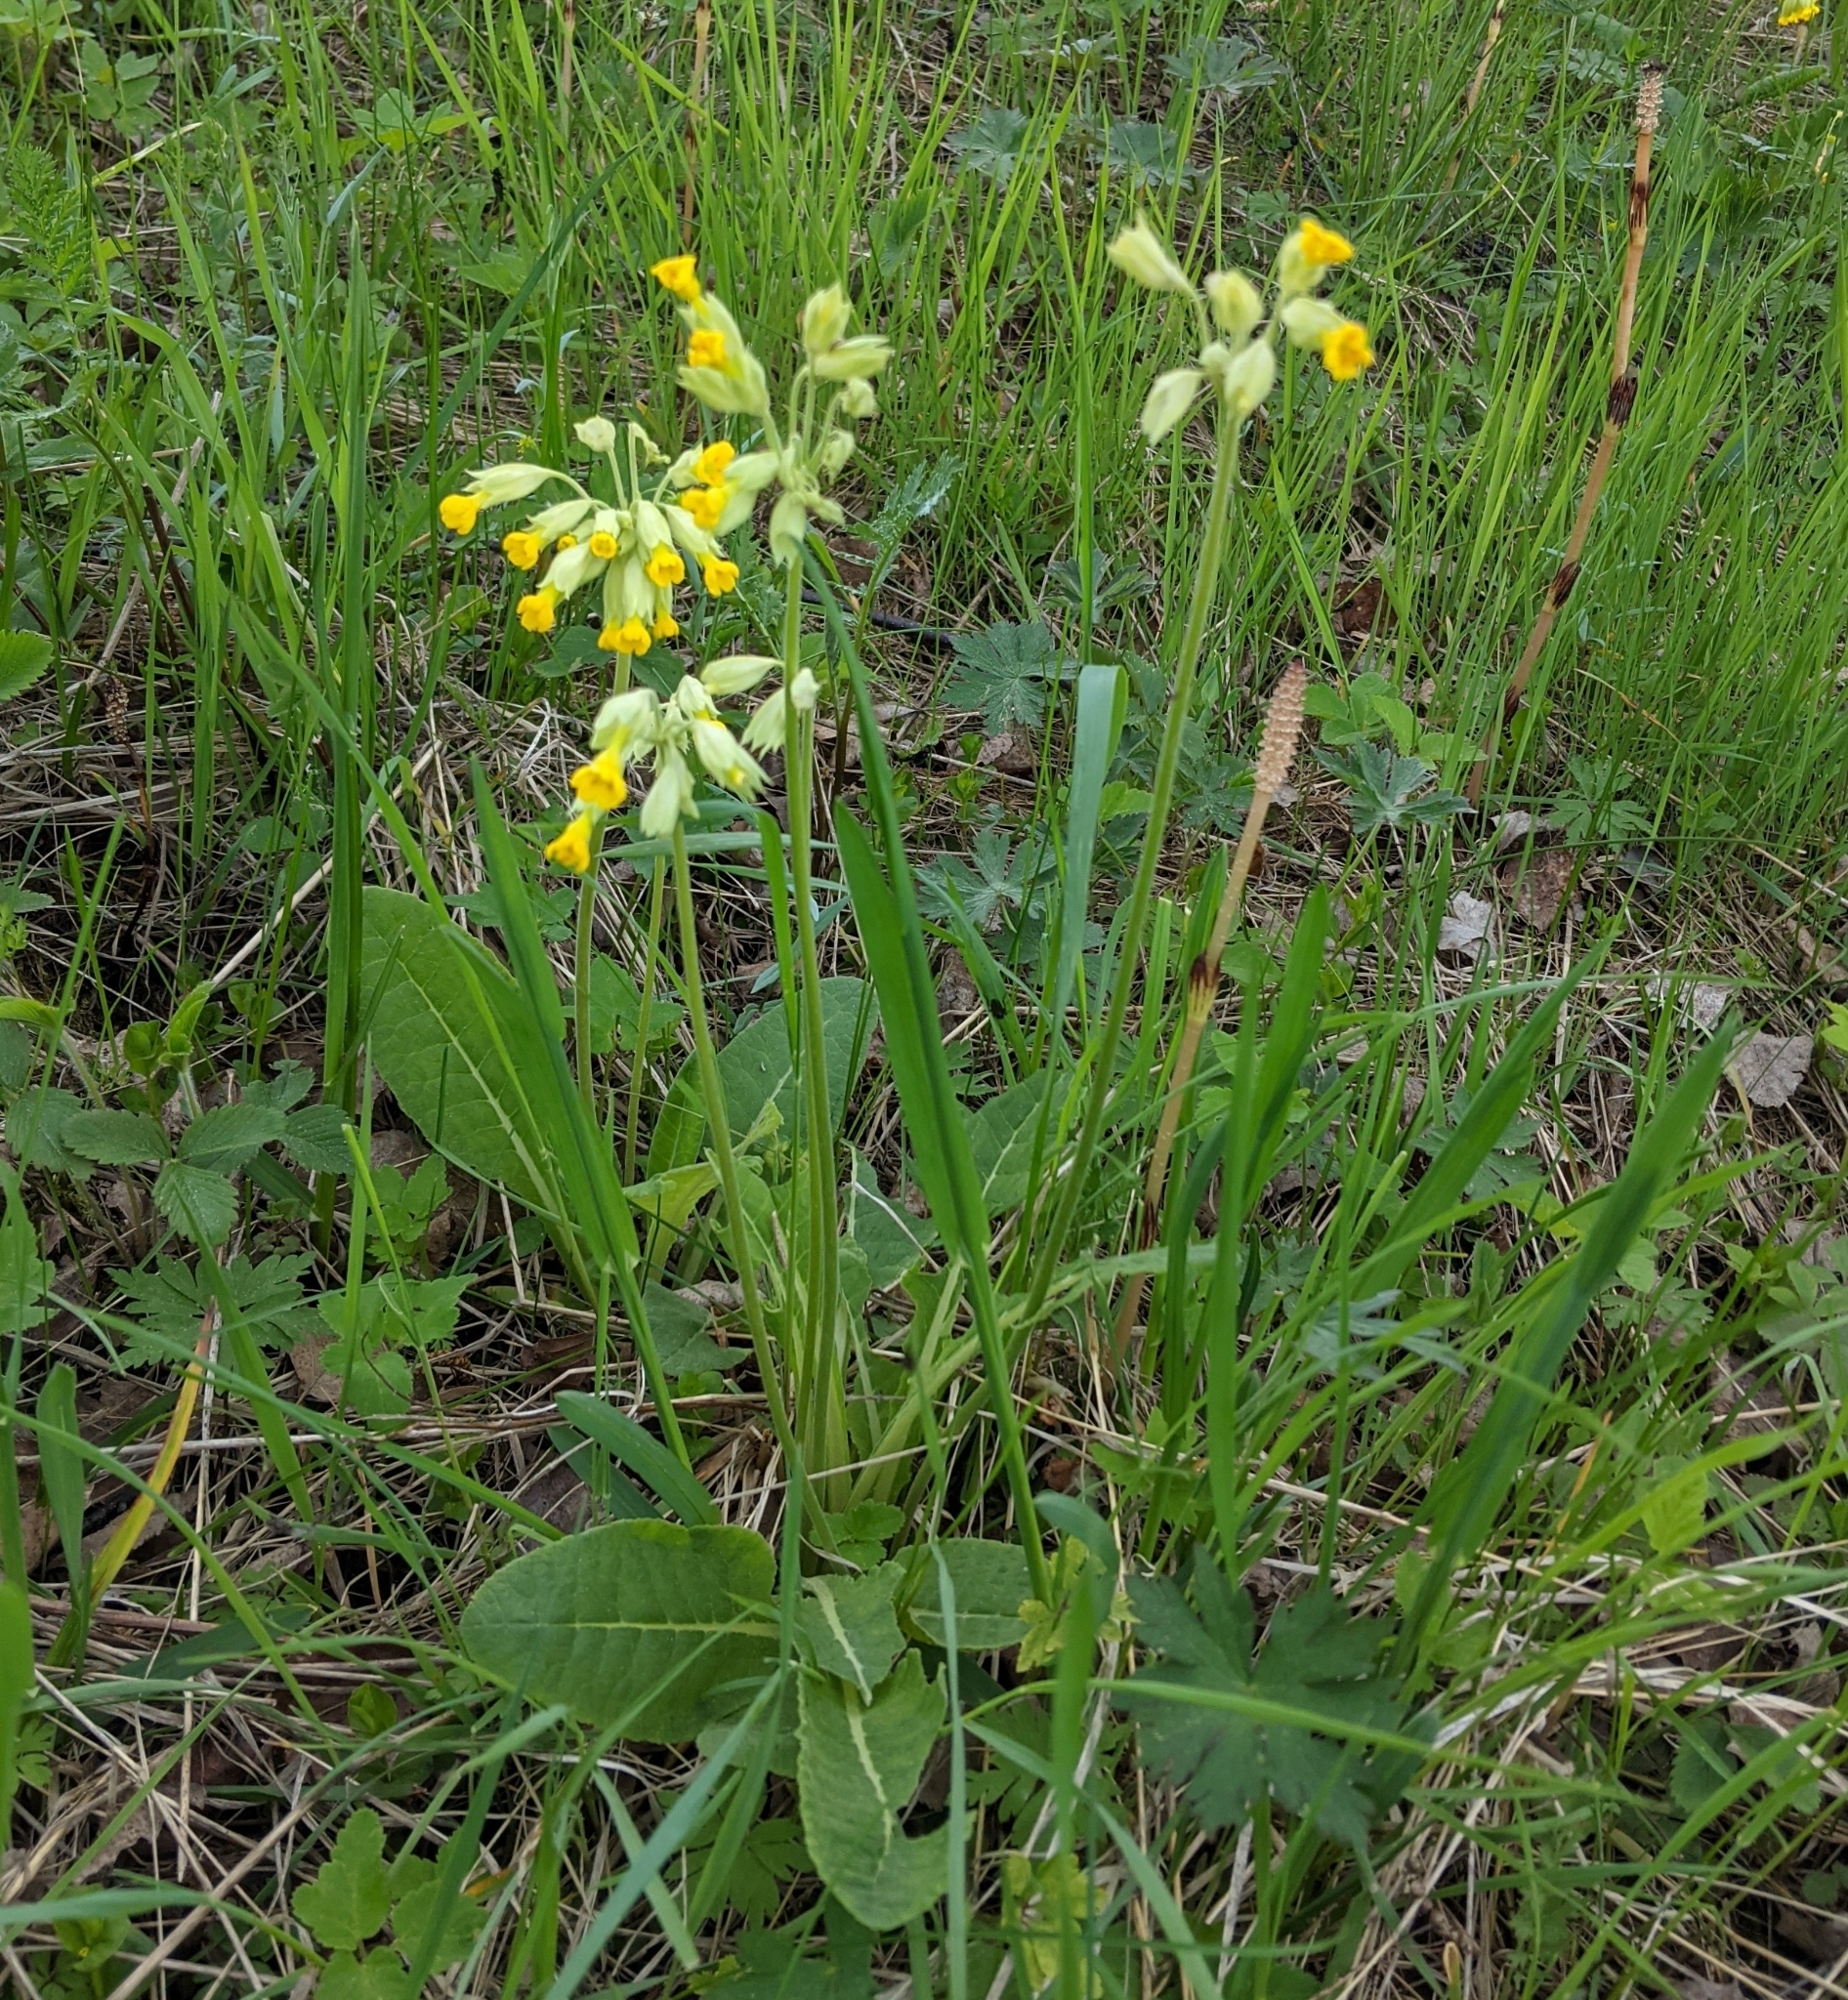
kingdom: Plantae
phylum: Tracheophyta
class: Magnoliopsida
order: Ericales
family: Primulaceae
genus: Primula
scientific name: Primula veris
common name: Cowslip
